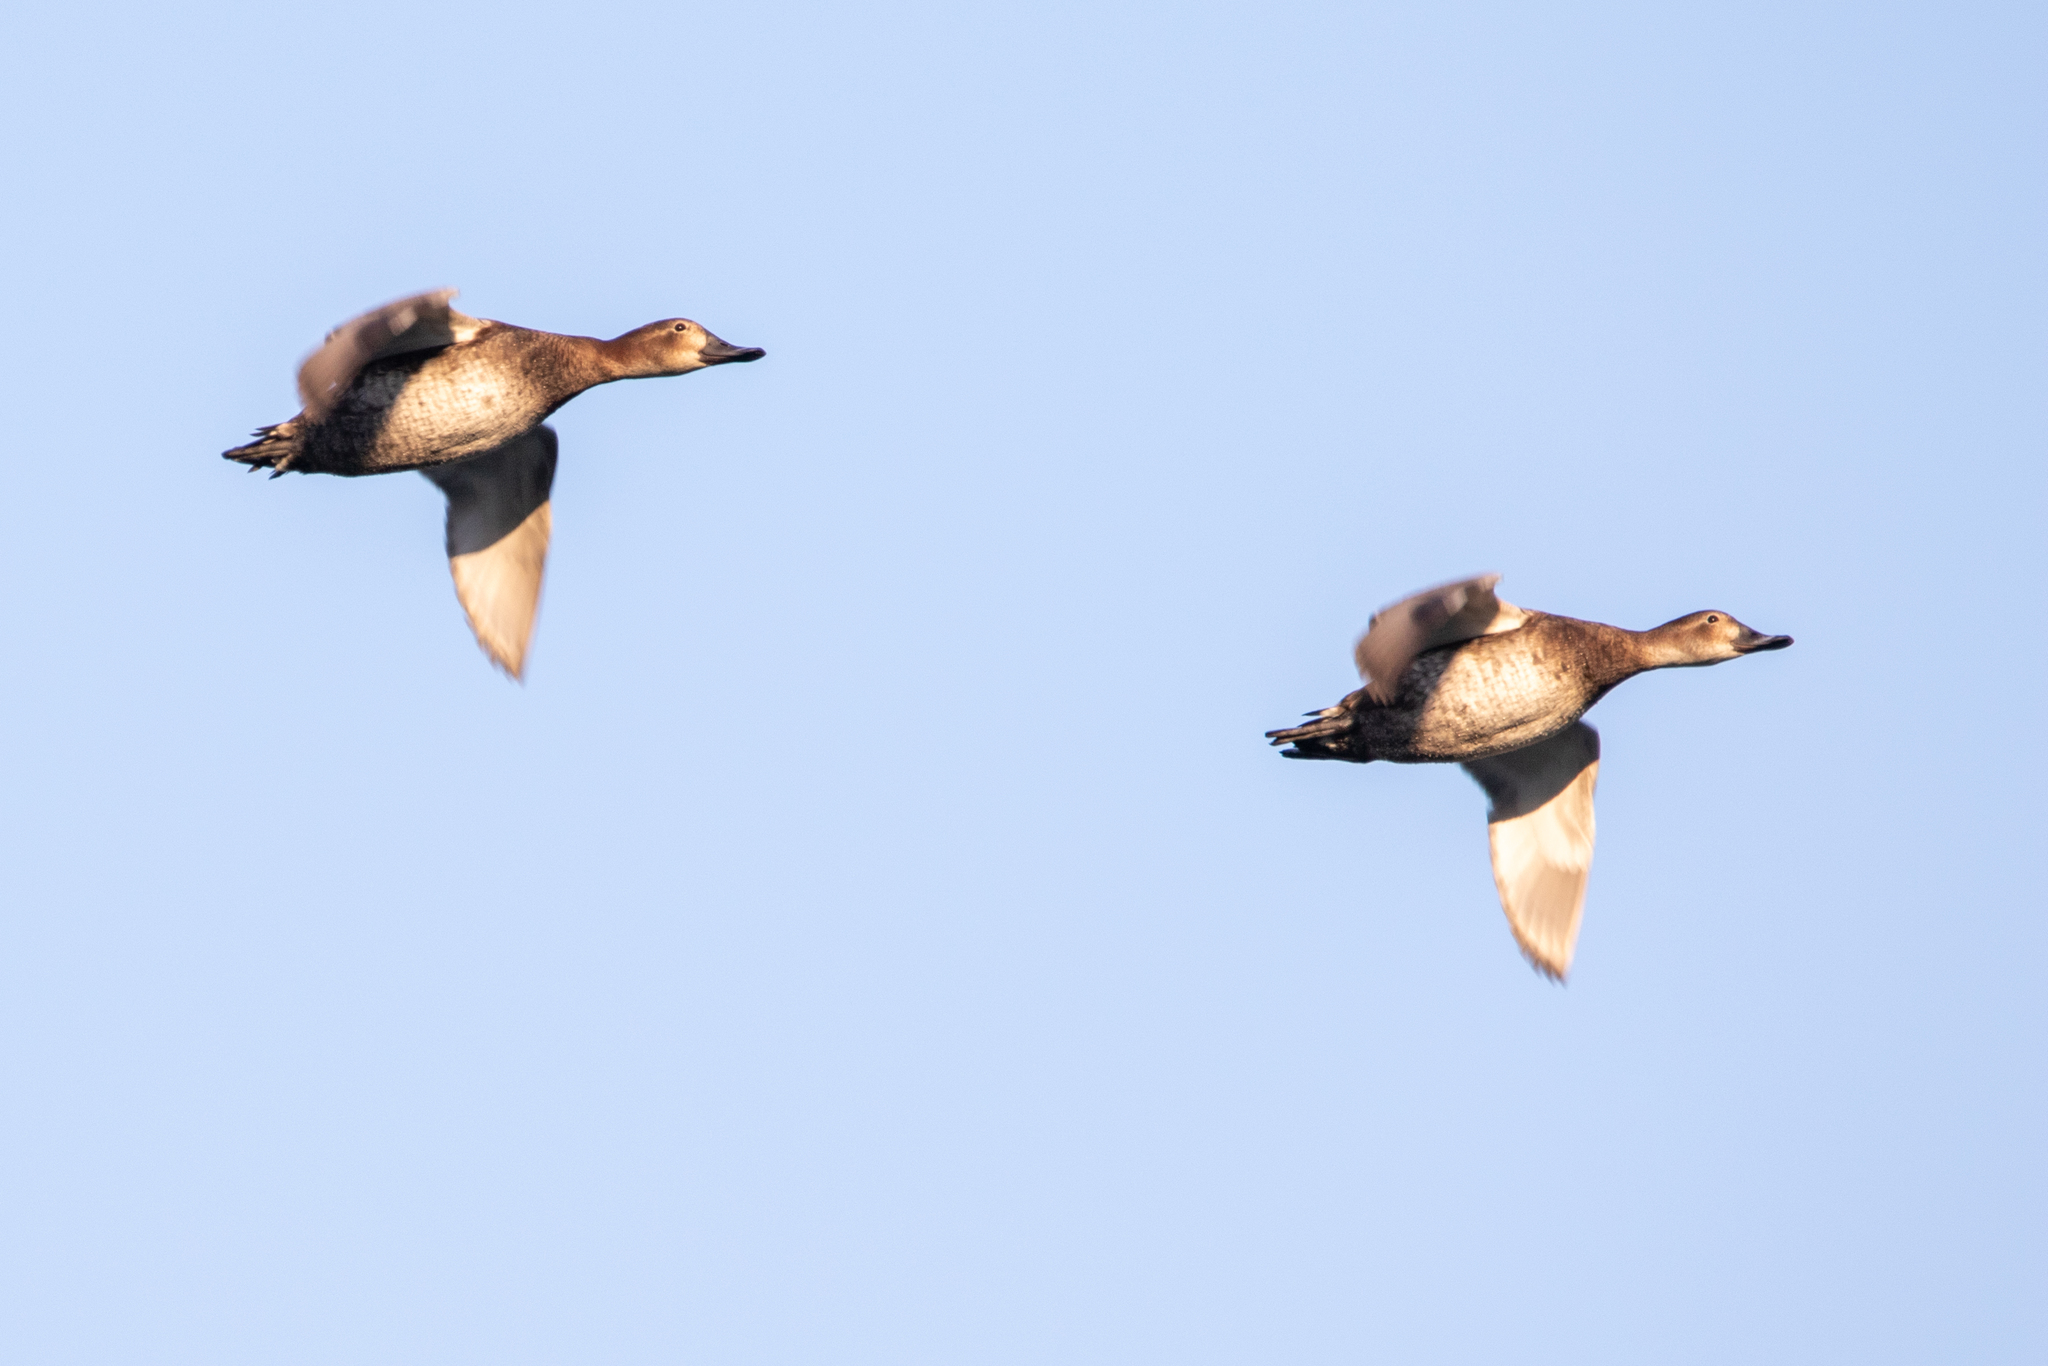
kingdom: Animalia
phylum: Chordata
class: Aves
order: Anseriformes
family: Anatidae
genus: Aythya
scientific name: Aythya ferina
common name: Common pochard
